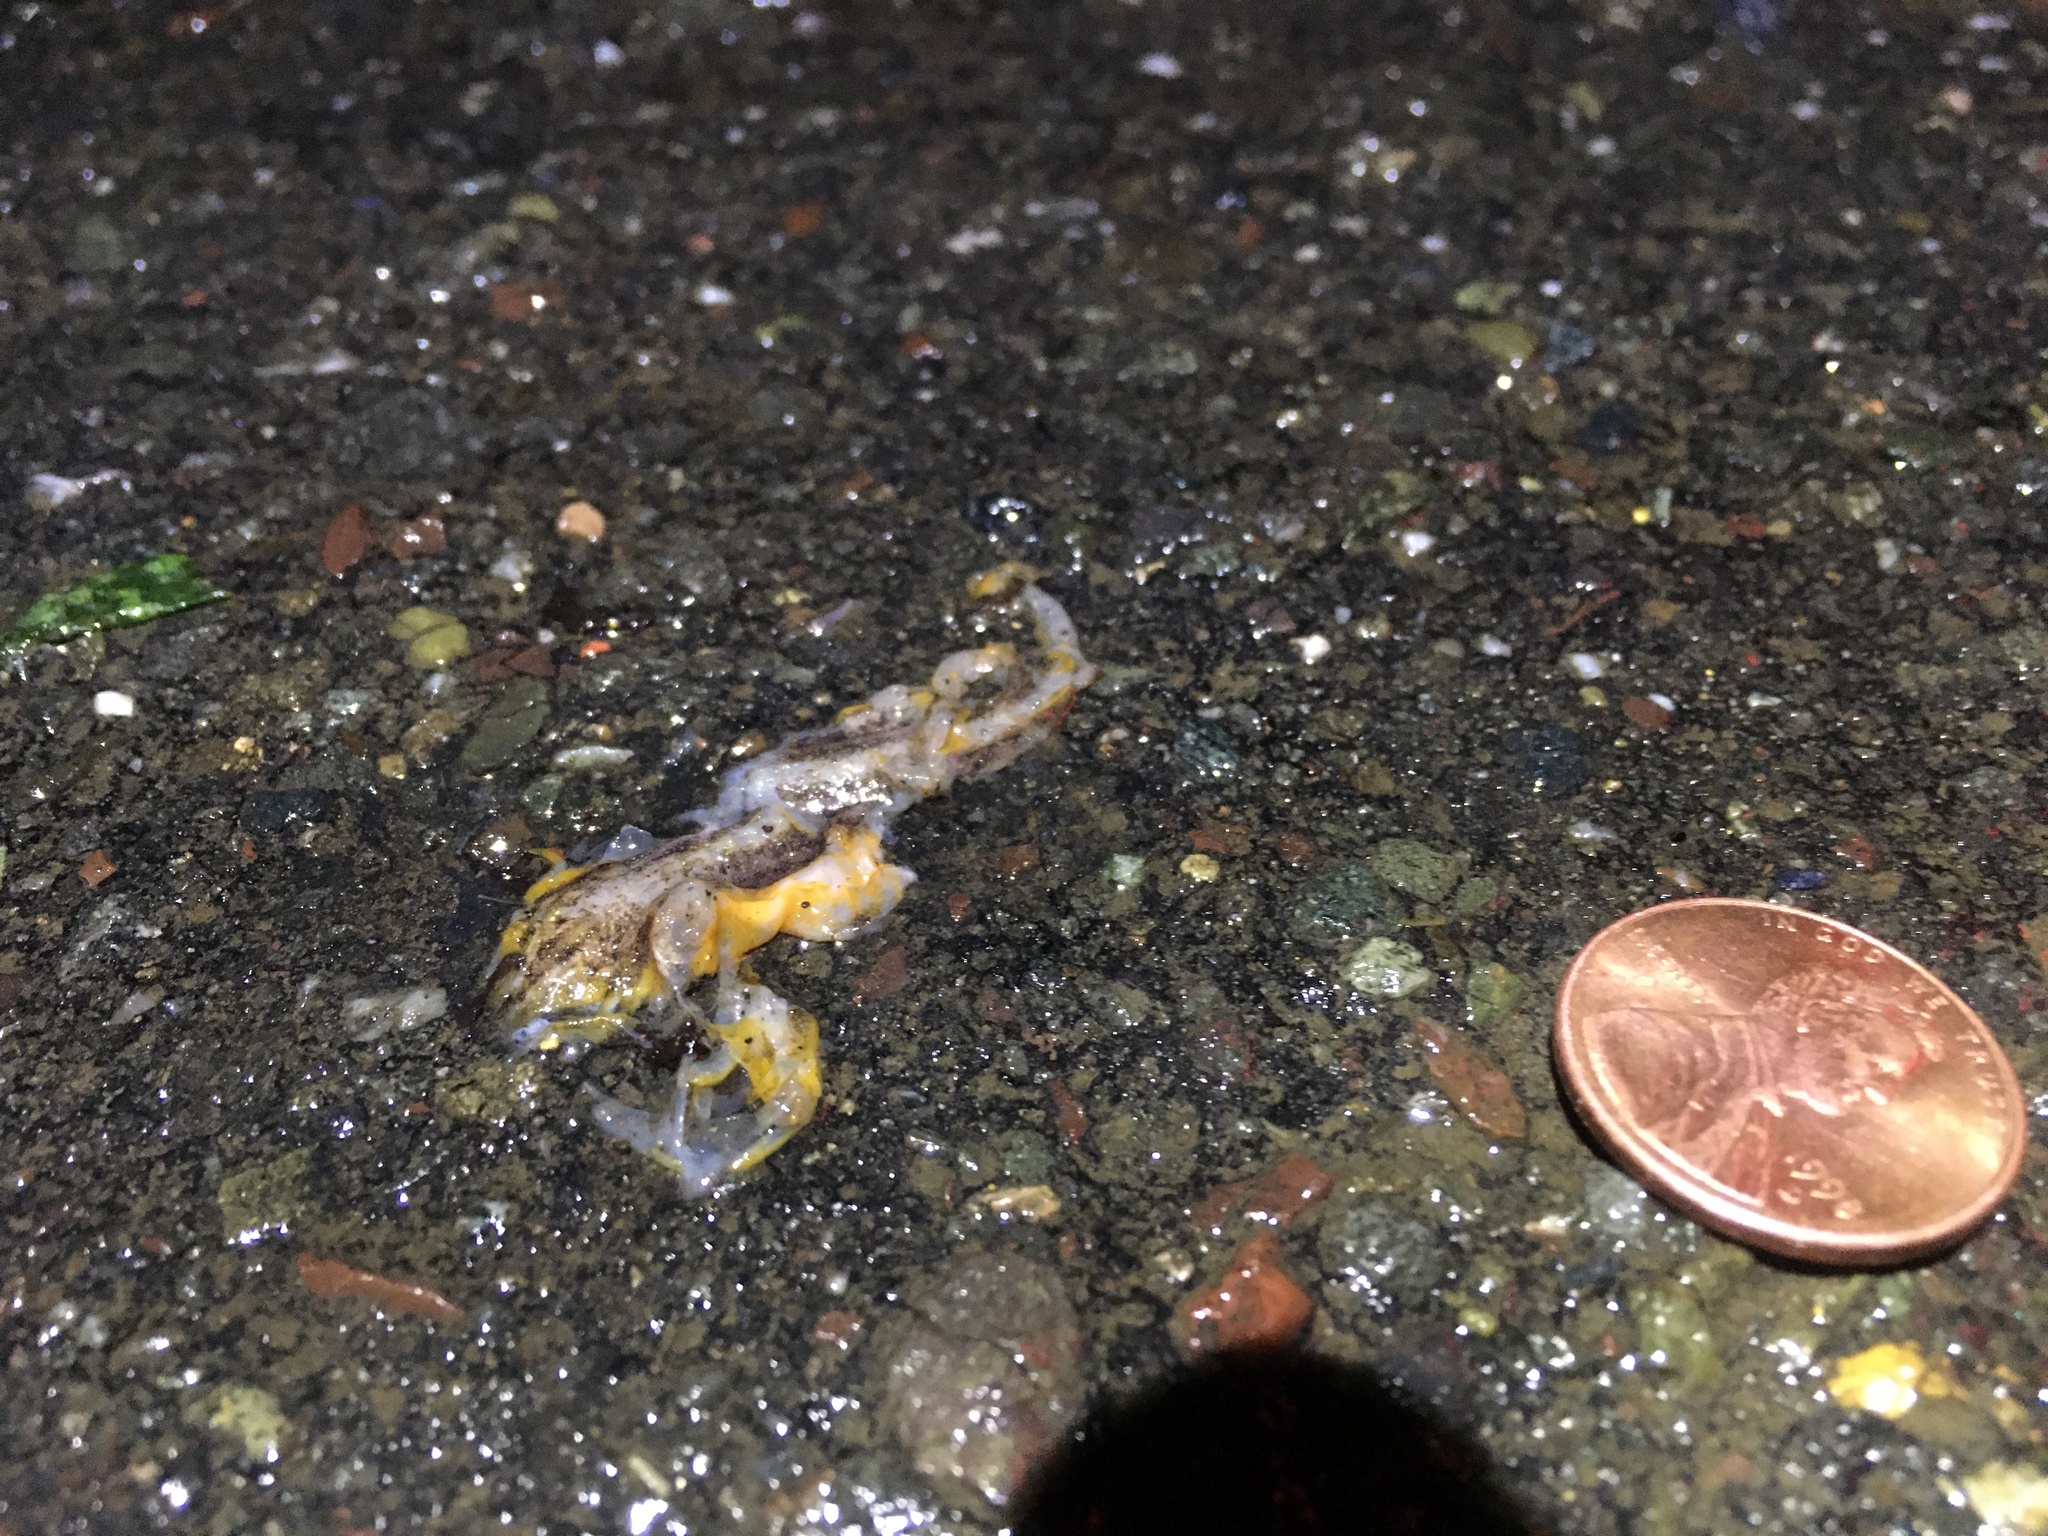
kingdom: Animalia
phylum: Chordata
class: Amphibia
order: Caudata
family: Salamandridae
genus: Taricha
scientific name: Taricha
